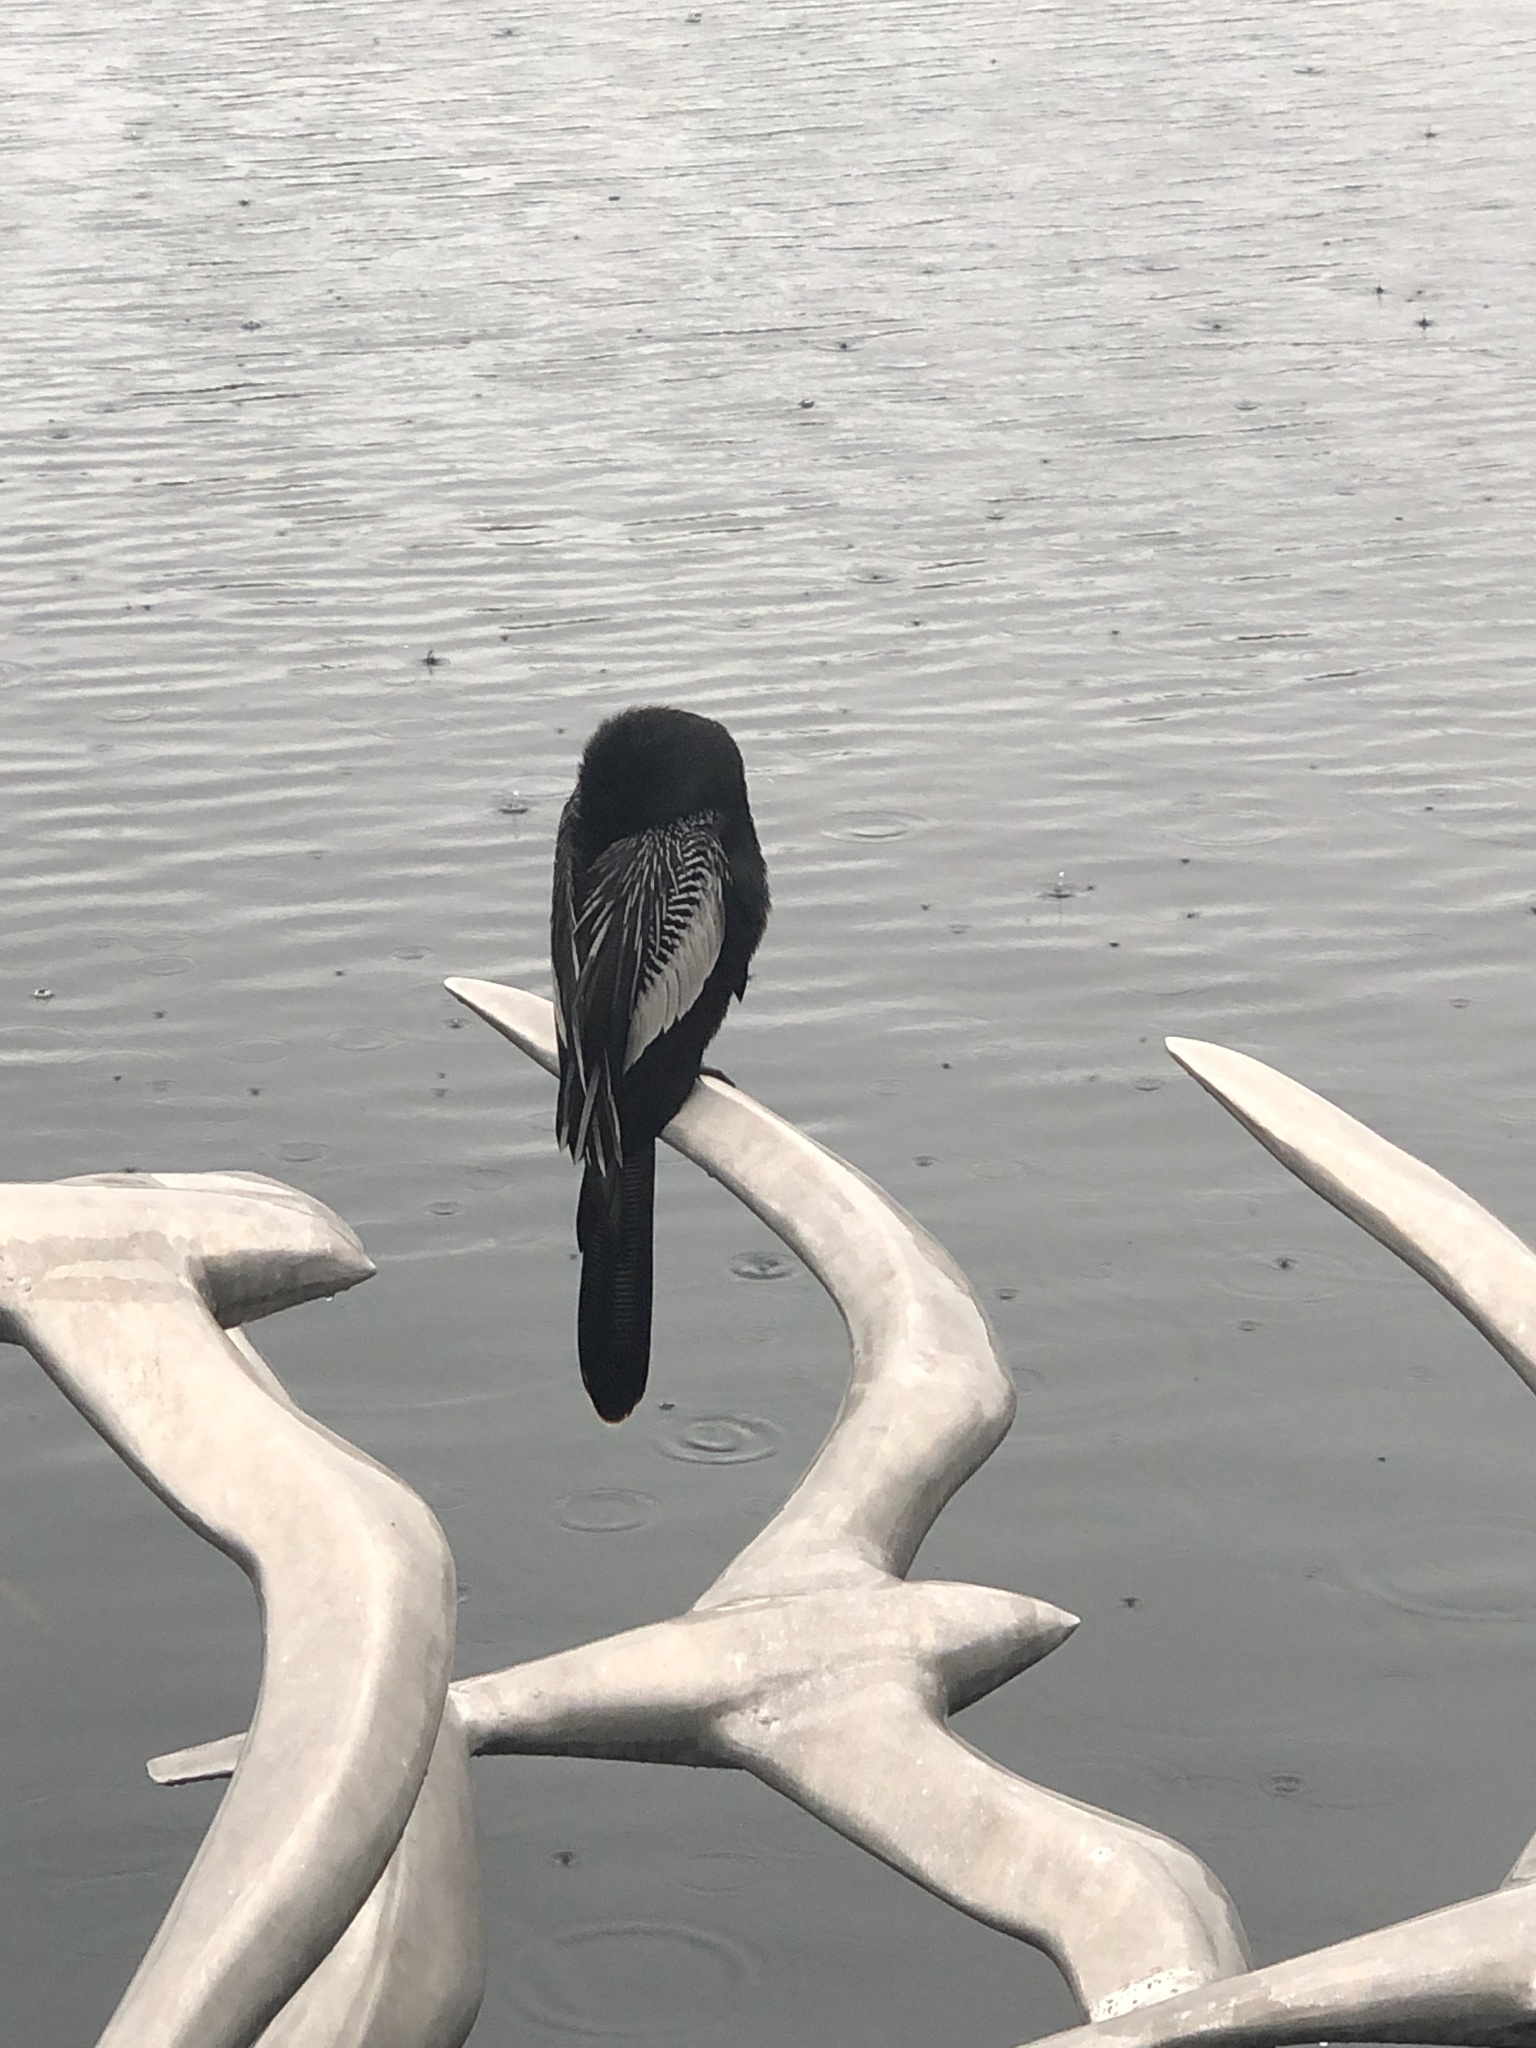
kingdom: Animalia
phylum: Chordata
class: Aves
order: Suliformes
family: Anhingidae
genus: Anhinga
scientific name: Anhinga anhinga
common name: Anhinga
